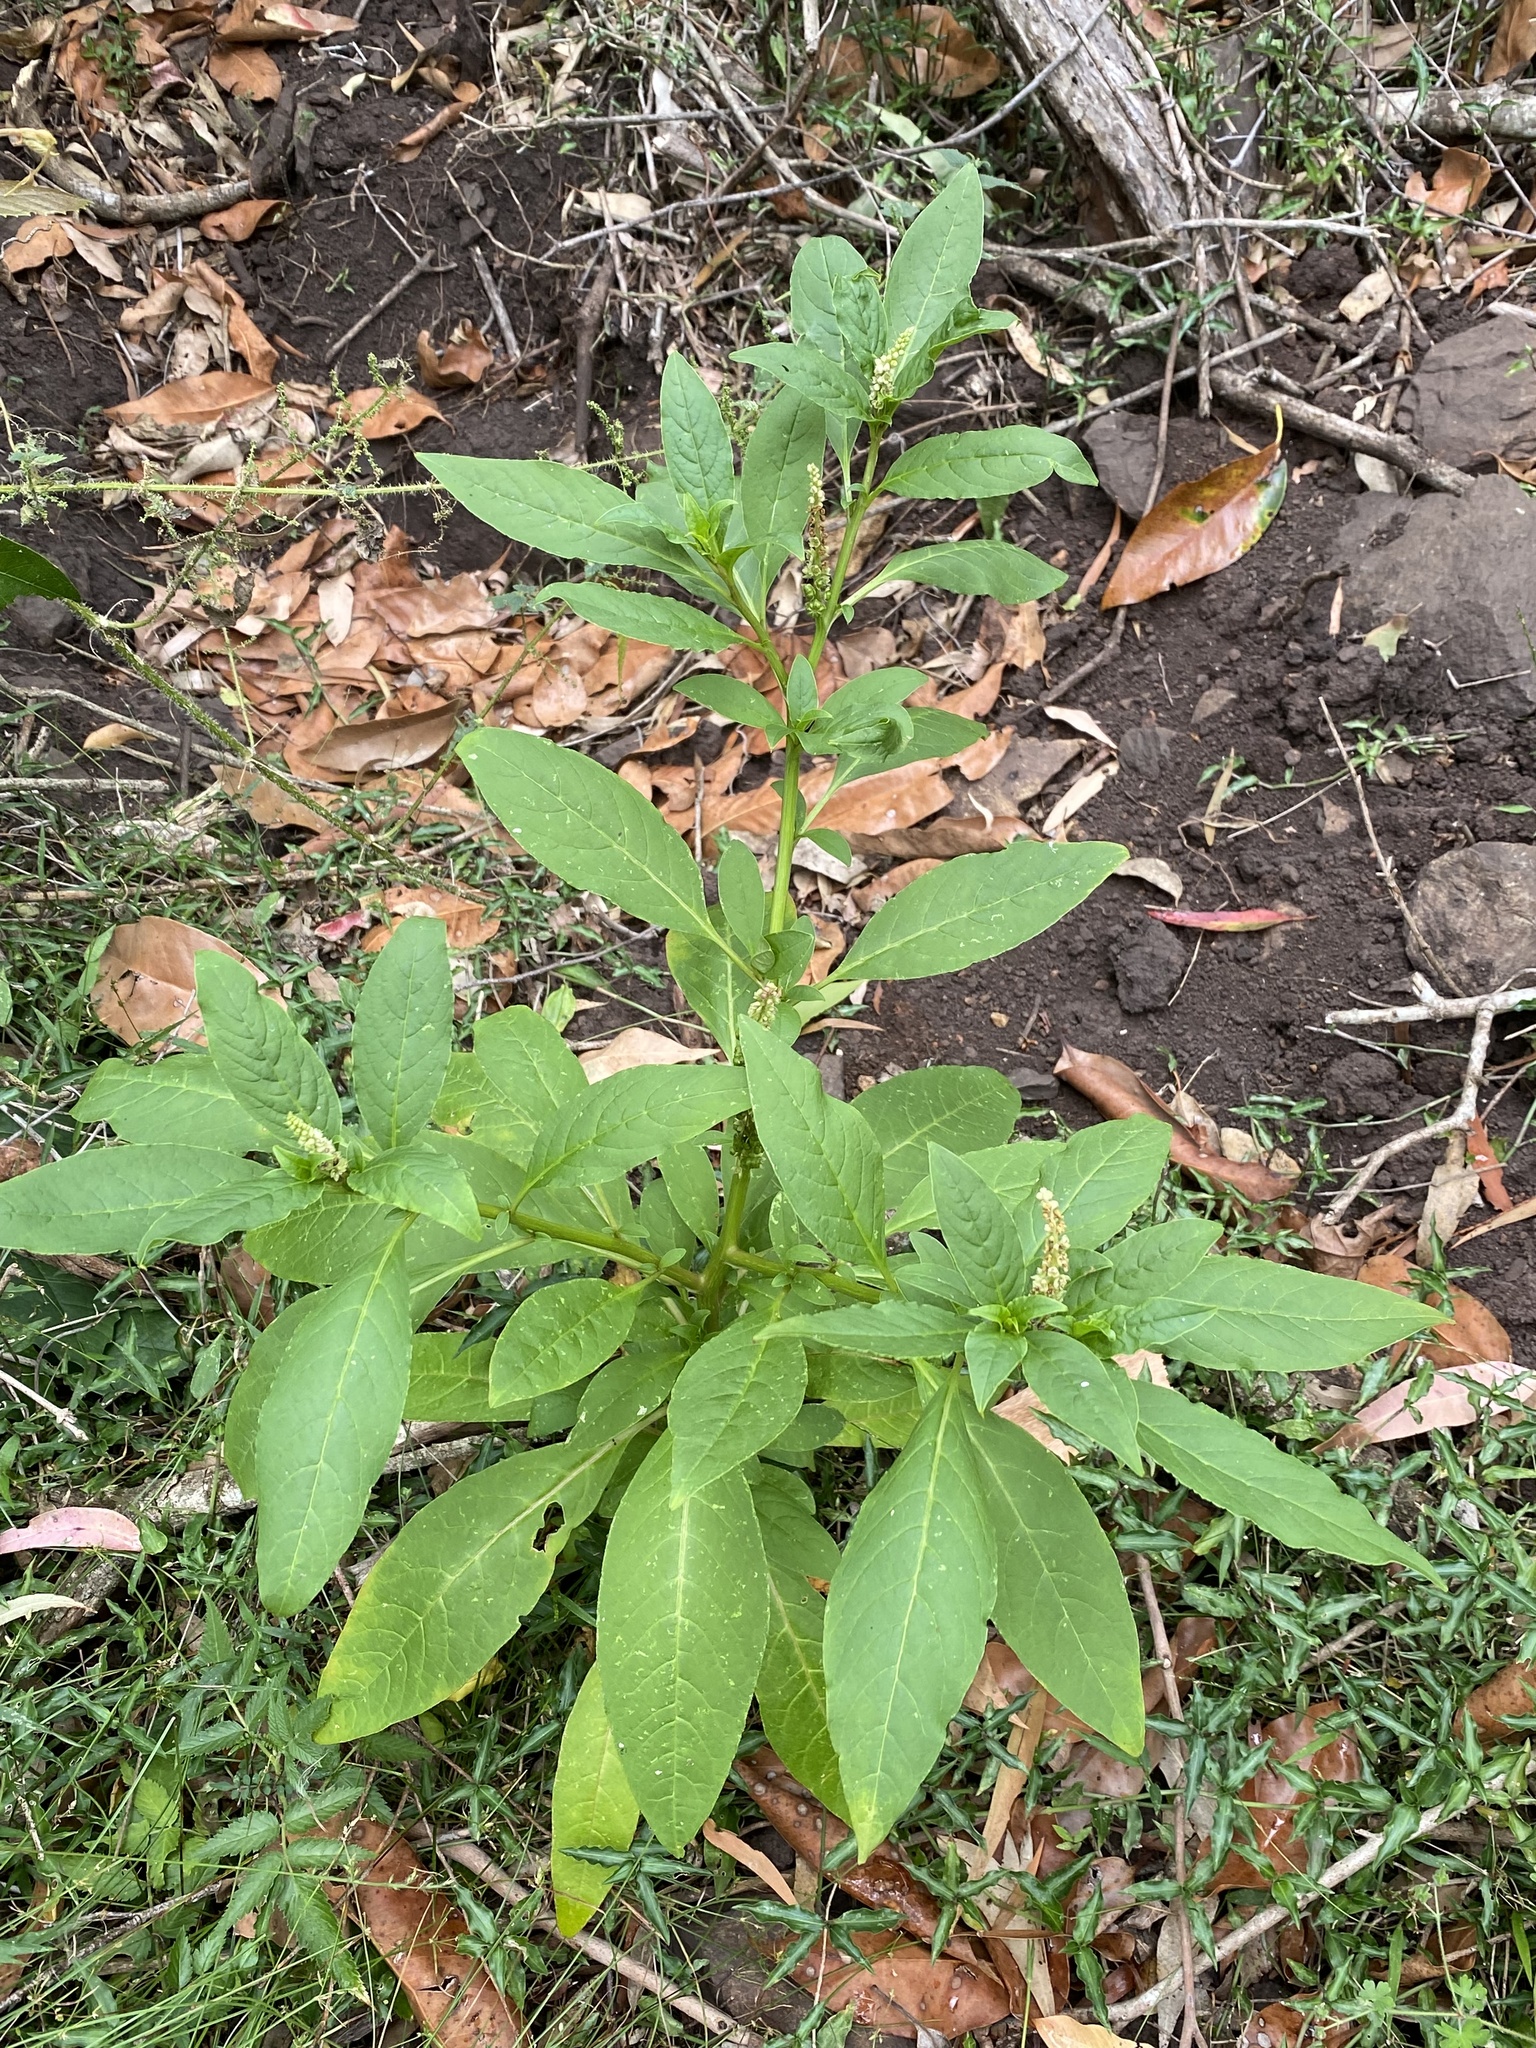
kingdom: Plantae
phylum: Tracheophyta
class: Magnoliopsida
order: Caryophyllales
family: Phytolaccaceae
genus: Phytolacca
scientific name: Phytolacca icosandra
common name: Button pokeweed
